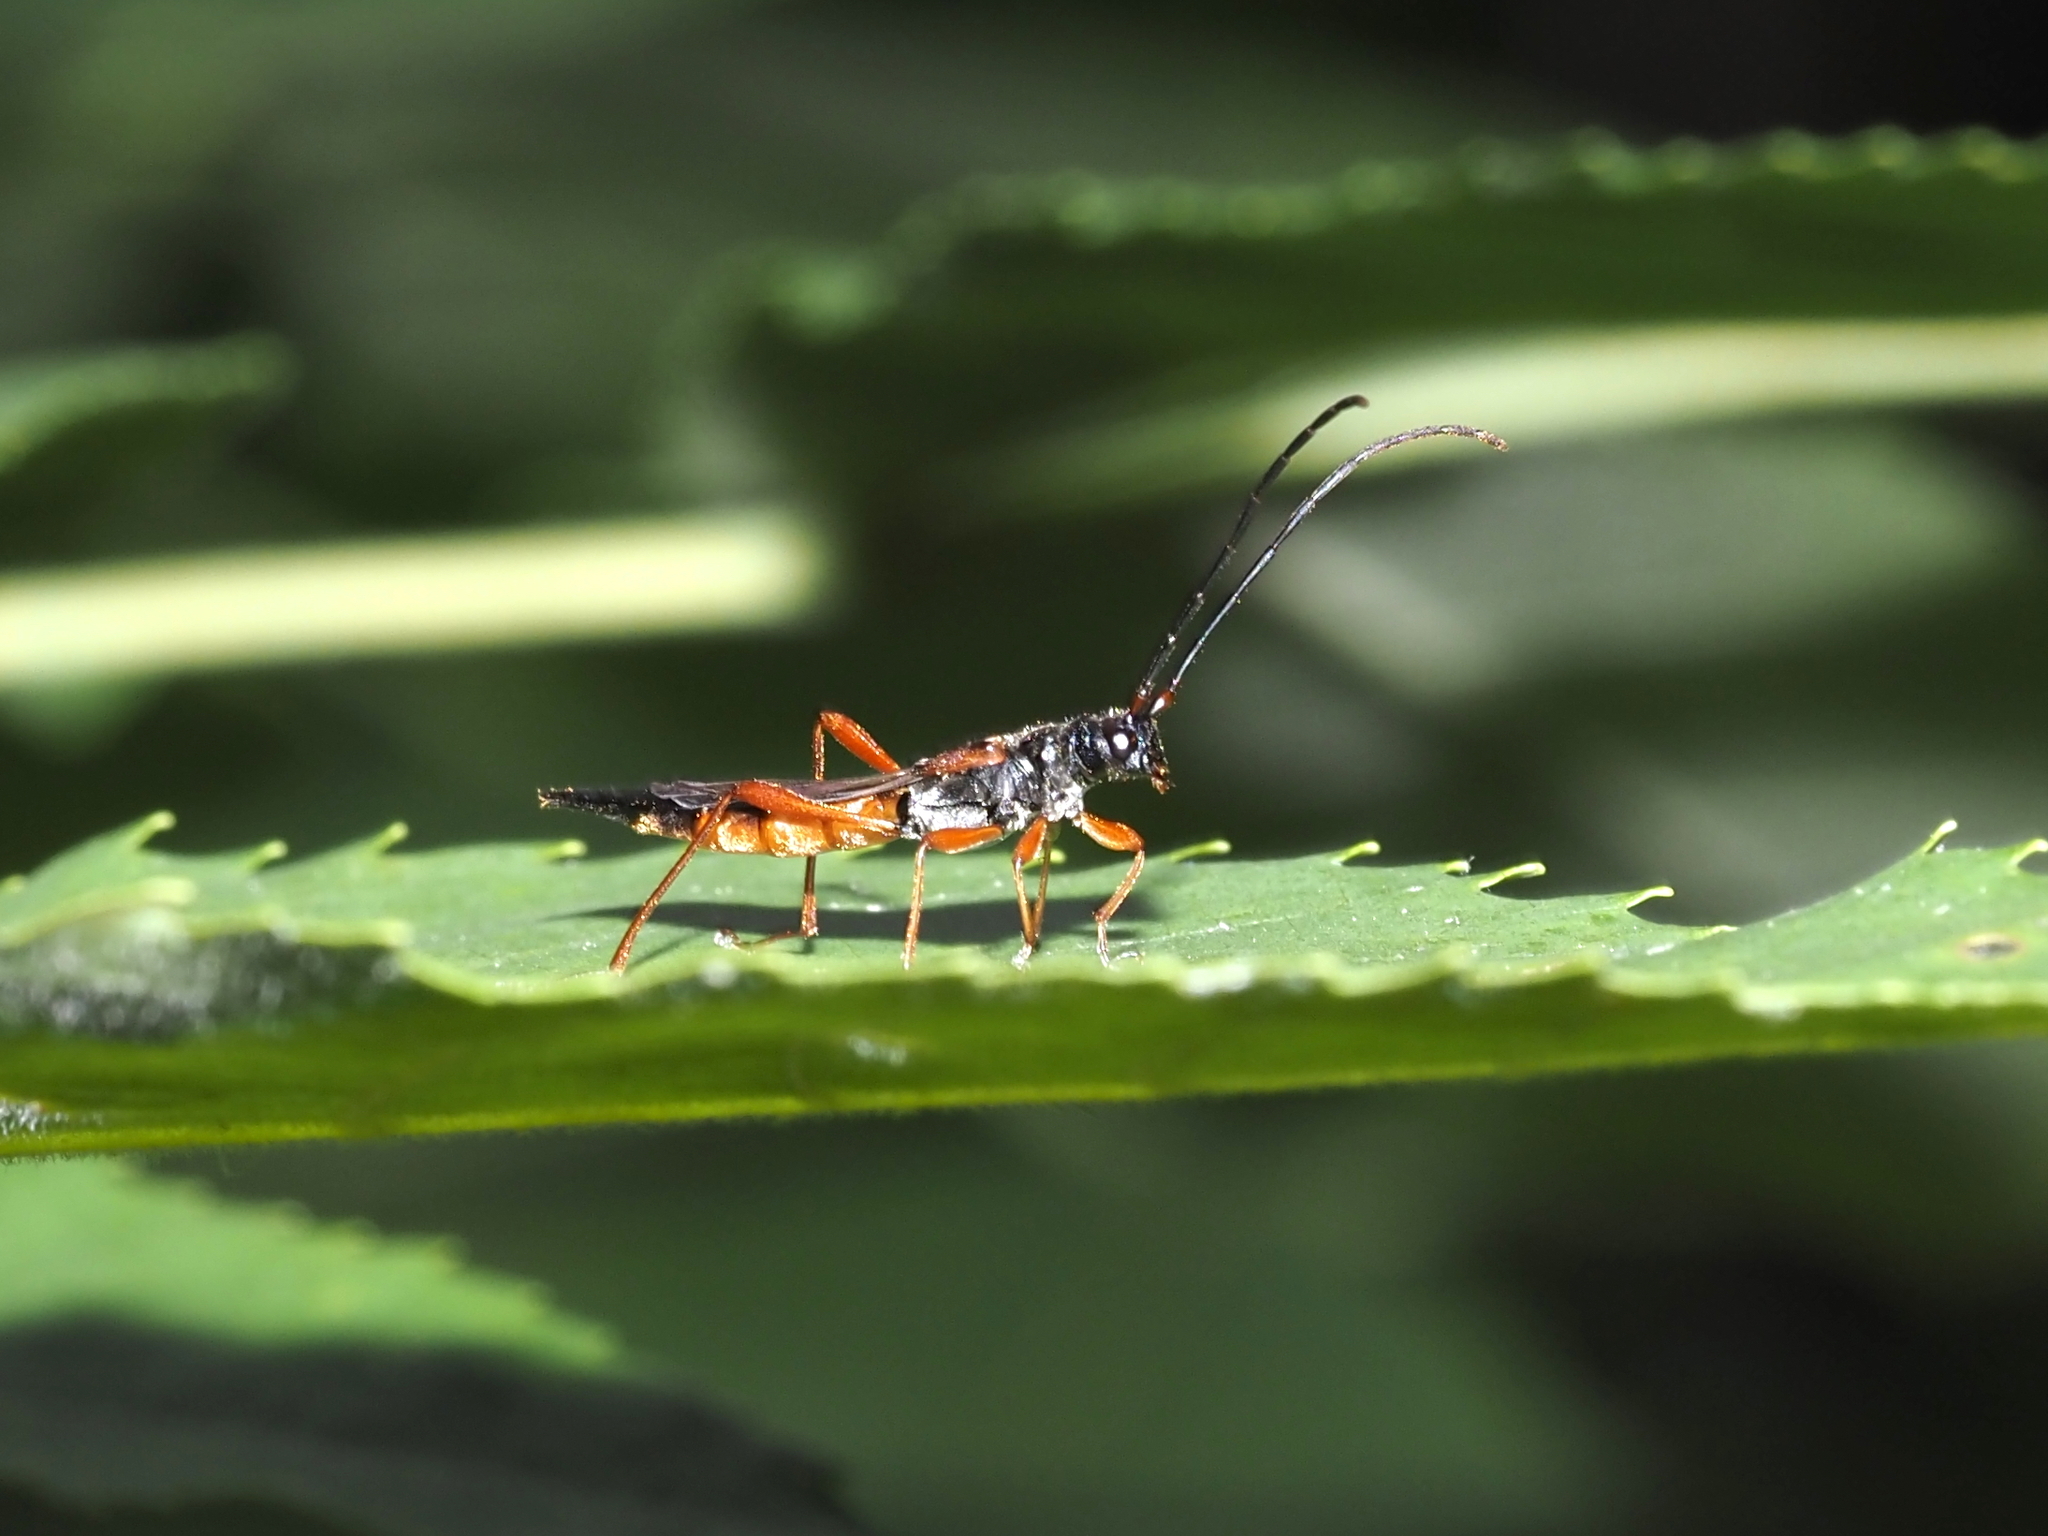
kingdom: Animalia
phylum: Arthropoda
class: Insecta
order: Coleoptera
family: Cerambycidae
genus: Necydalis
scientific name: Necydalis mellita
